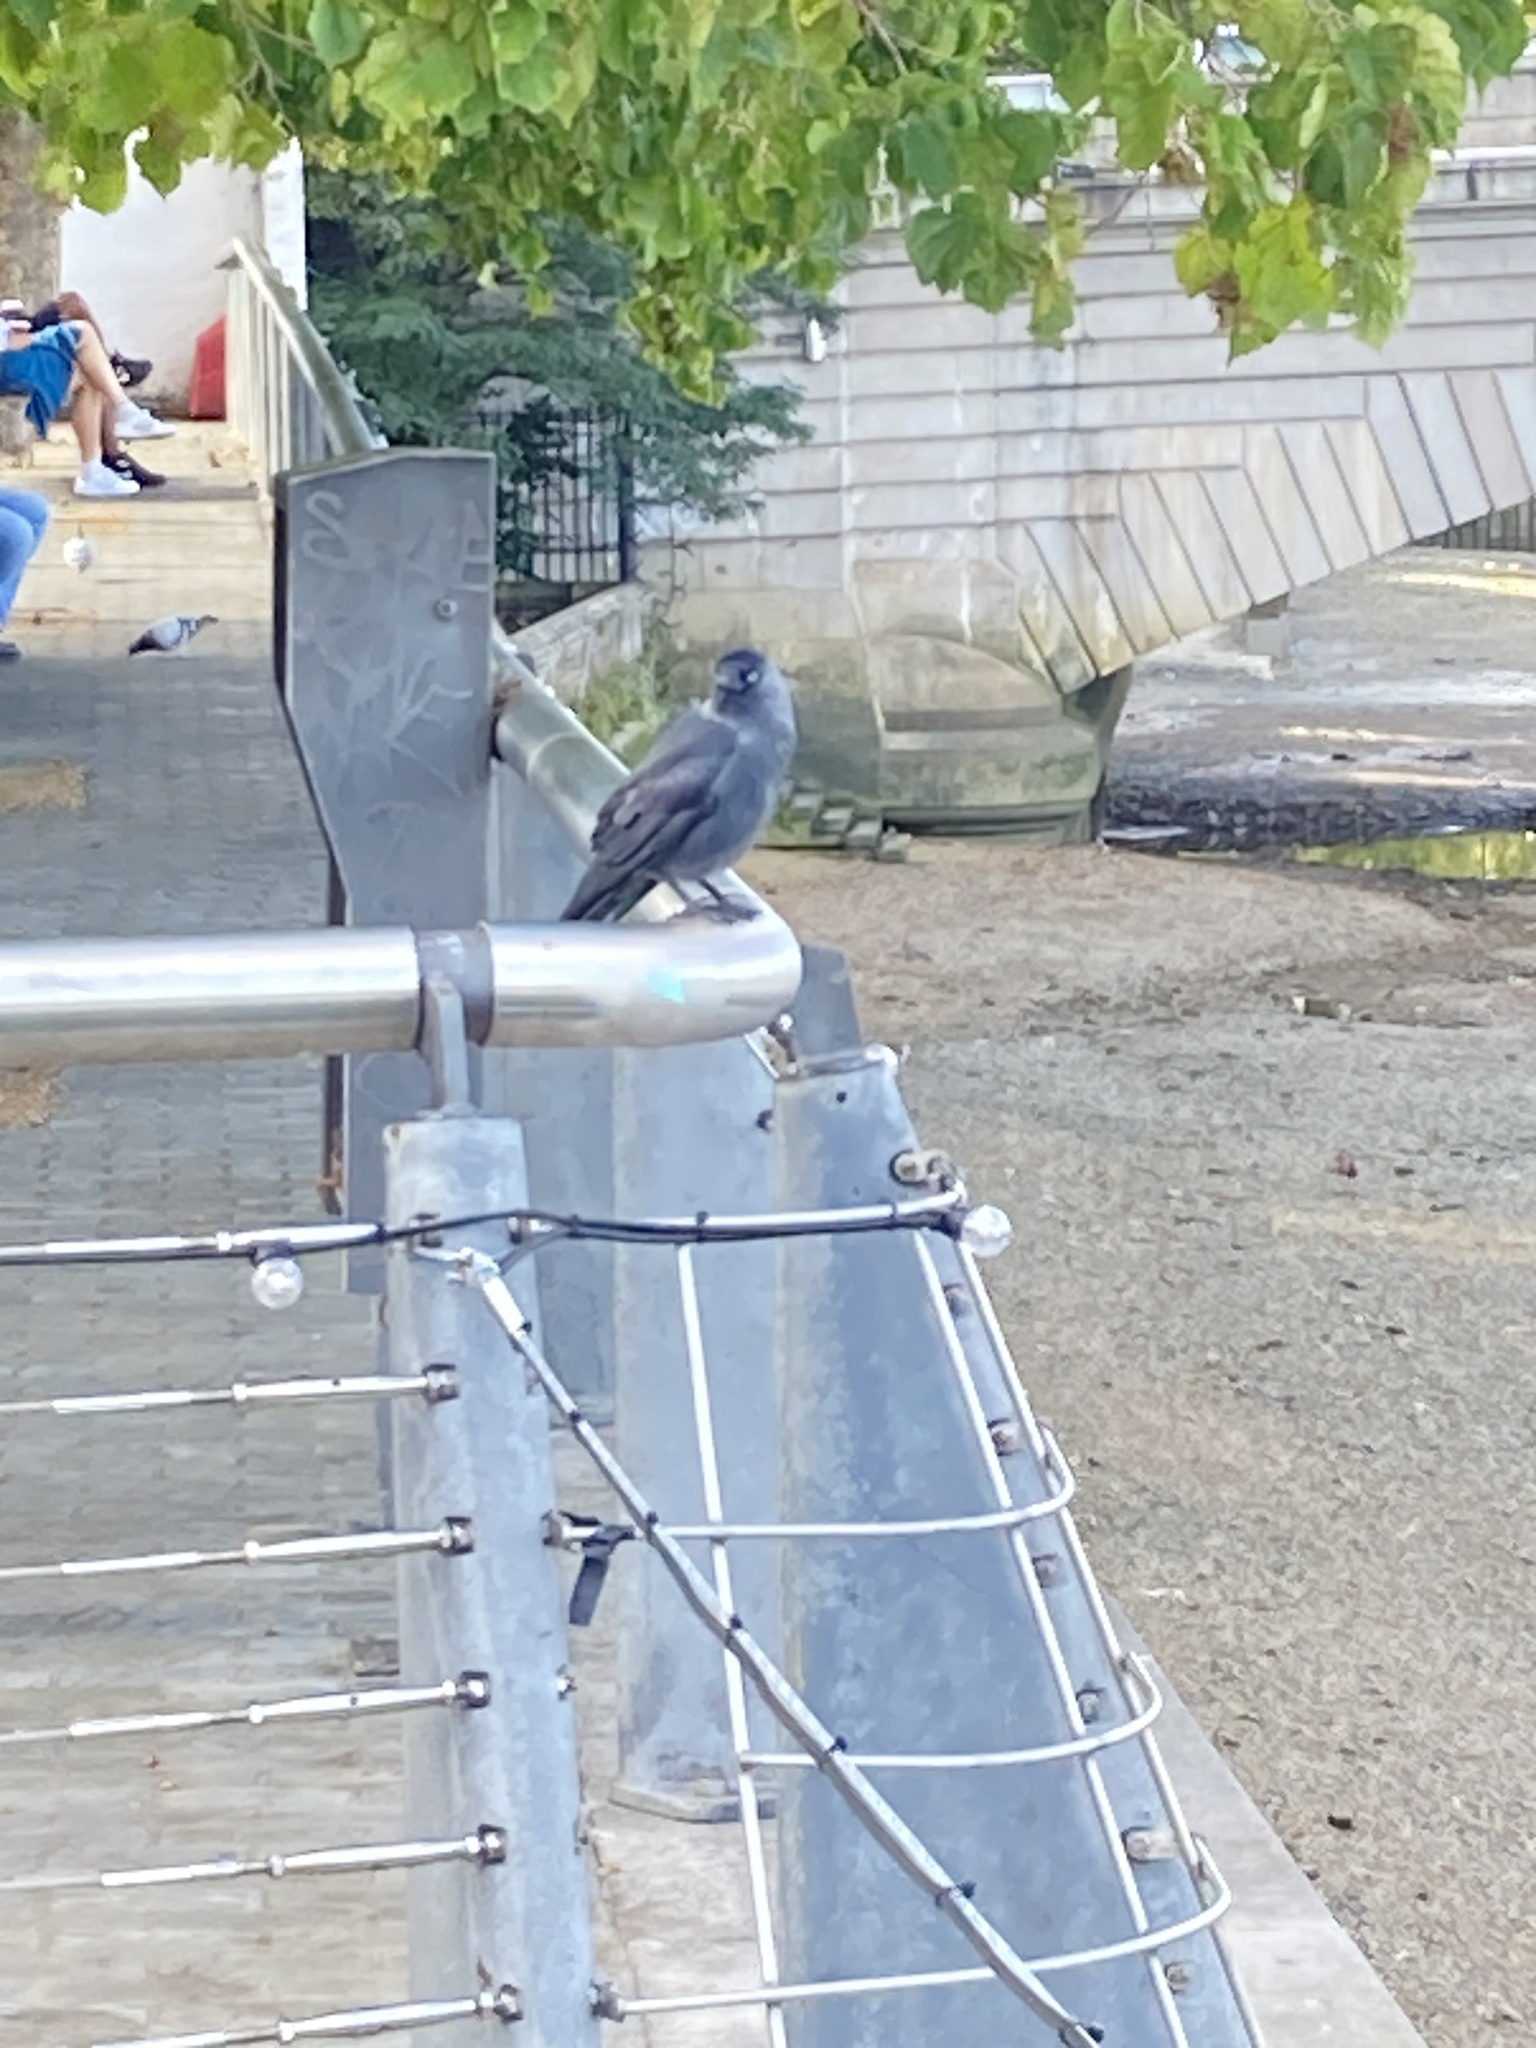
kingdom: Animalia
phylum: Chordata
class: Aves
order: Passeriformes
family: Corvidae
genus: Coloeus
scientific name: Coloeus monedula
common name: Western jackdaw
